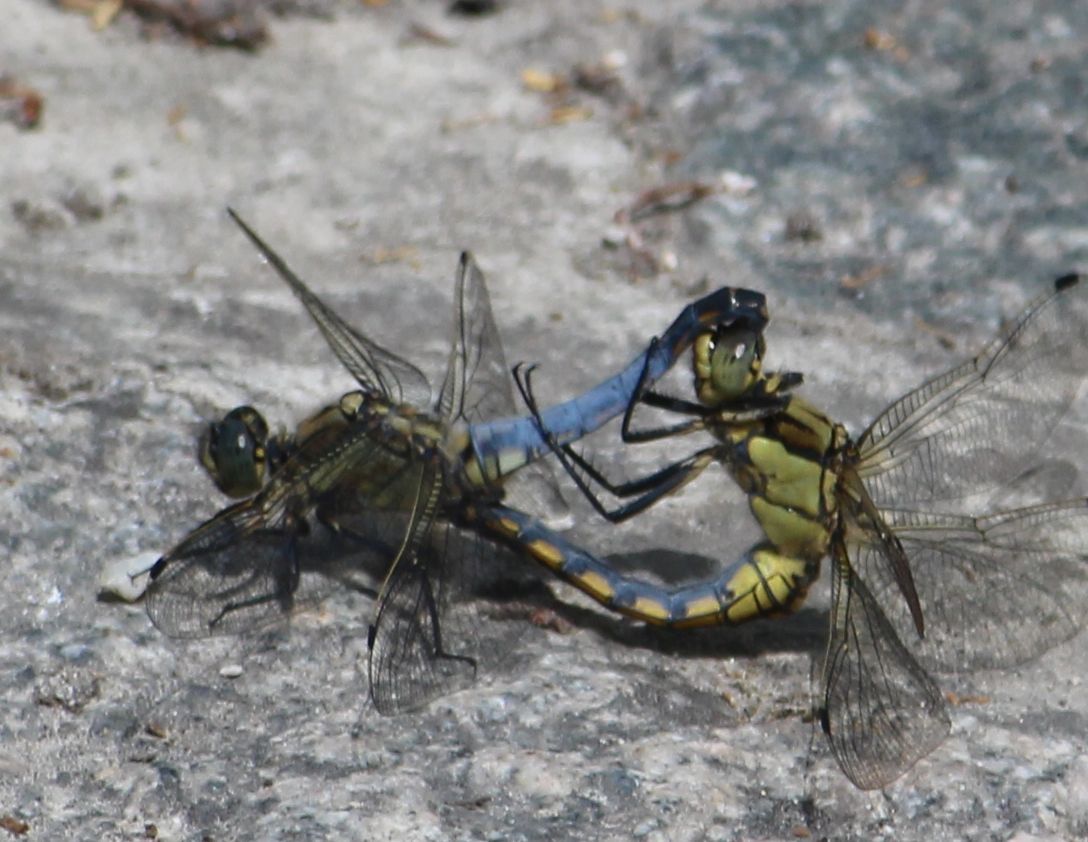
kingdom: Animalia
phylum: Arthropoda
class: Insecta
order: Odonata
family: Libellulidae
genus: Orthetrum
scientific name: Orthetrum cancellatum
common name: Black-tailed skimmer
